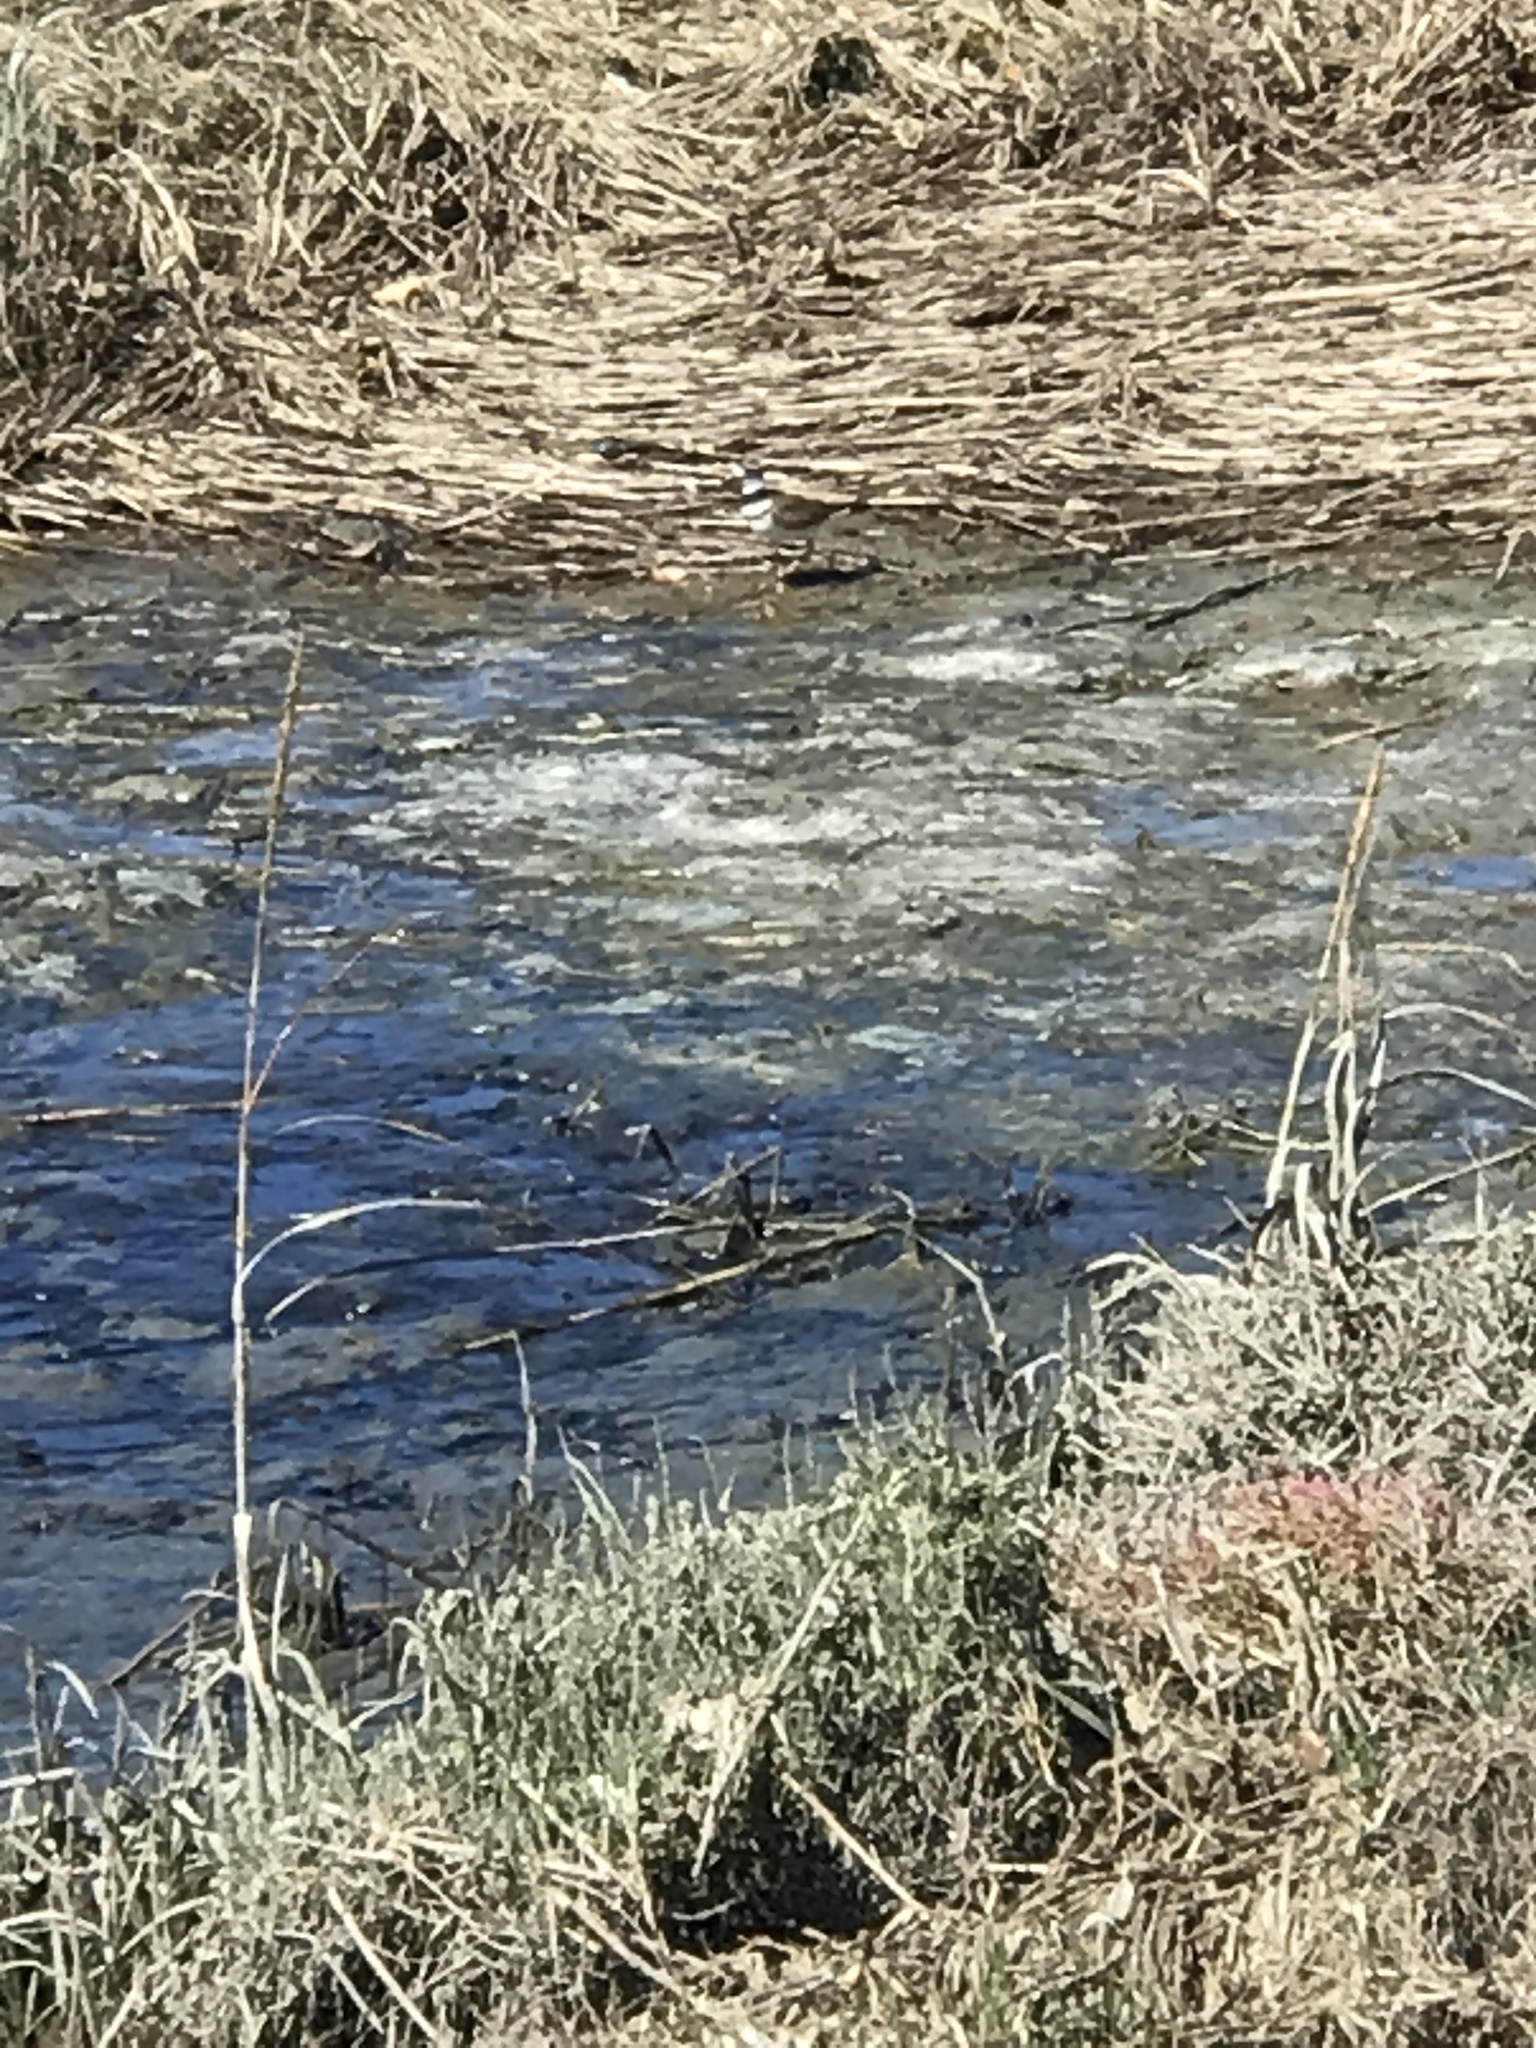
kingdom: Animalia
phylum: Chordata
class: Aves
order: Charadriiformes
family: Charadriidae
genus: Charadrius
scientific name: Charadrius vociferus
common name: Killdeer
